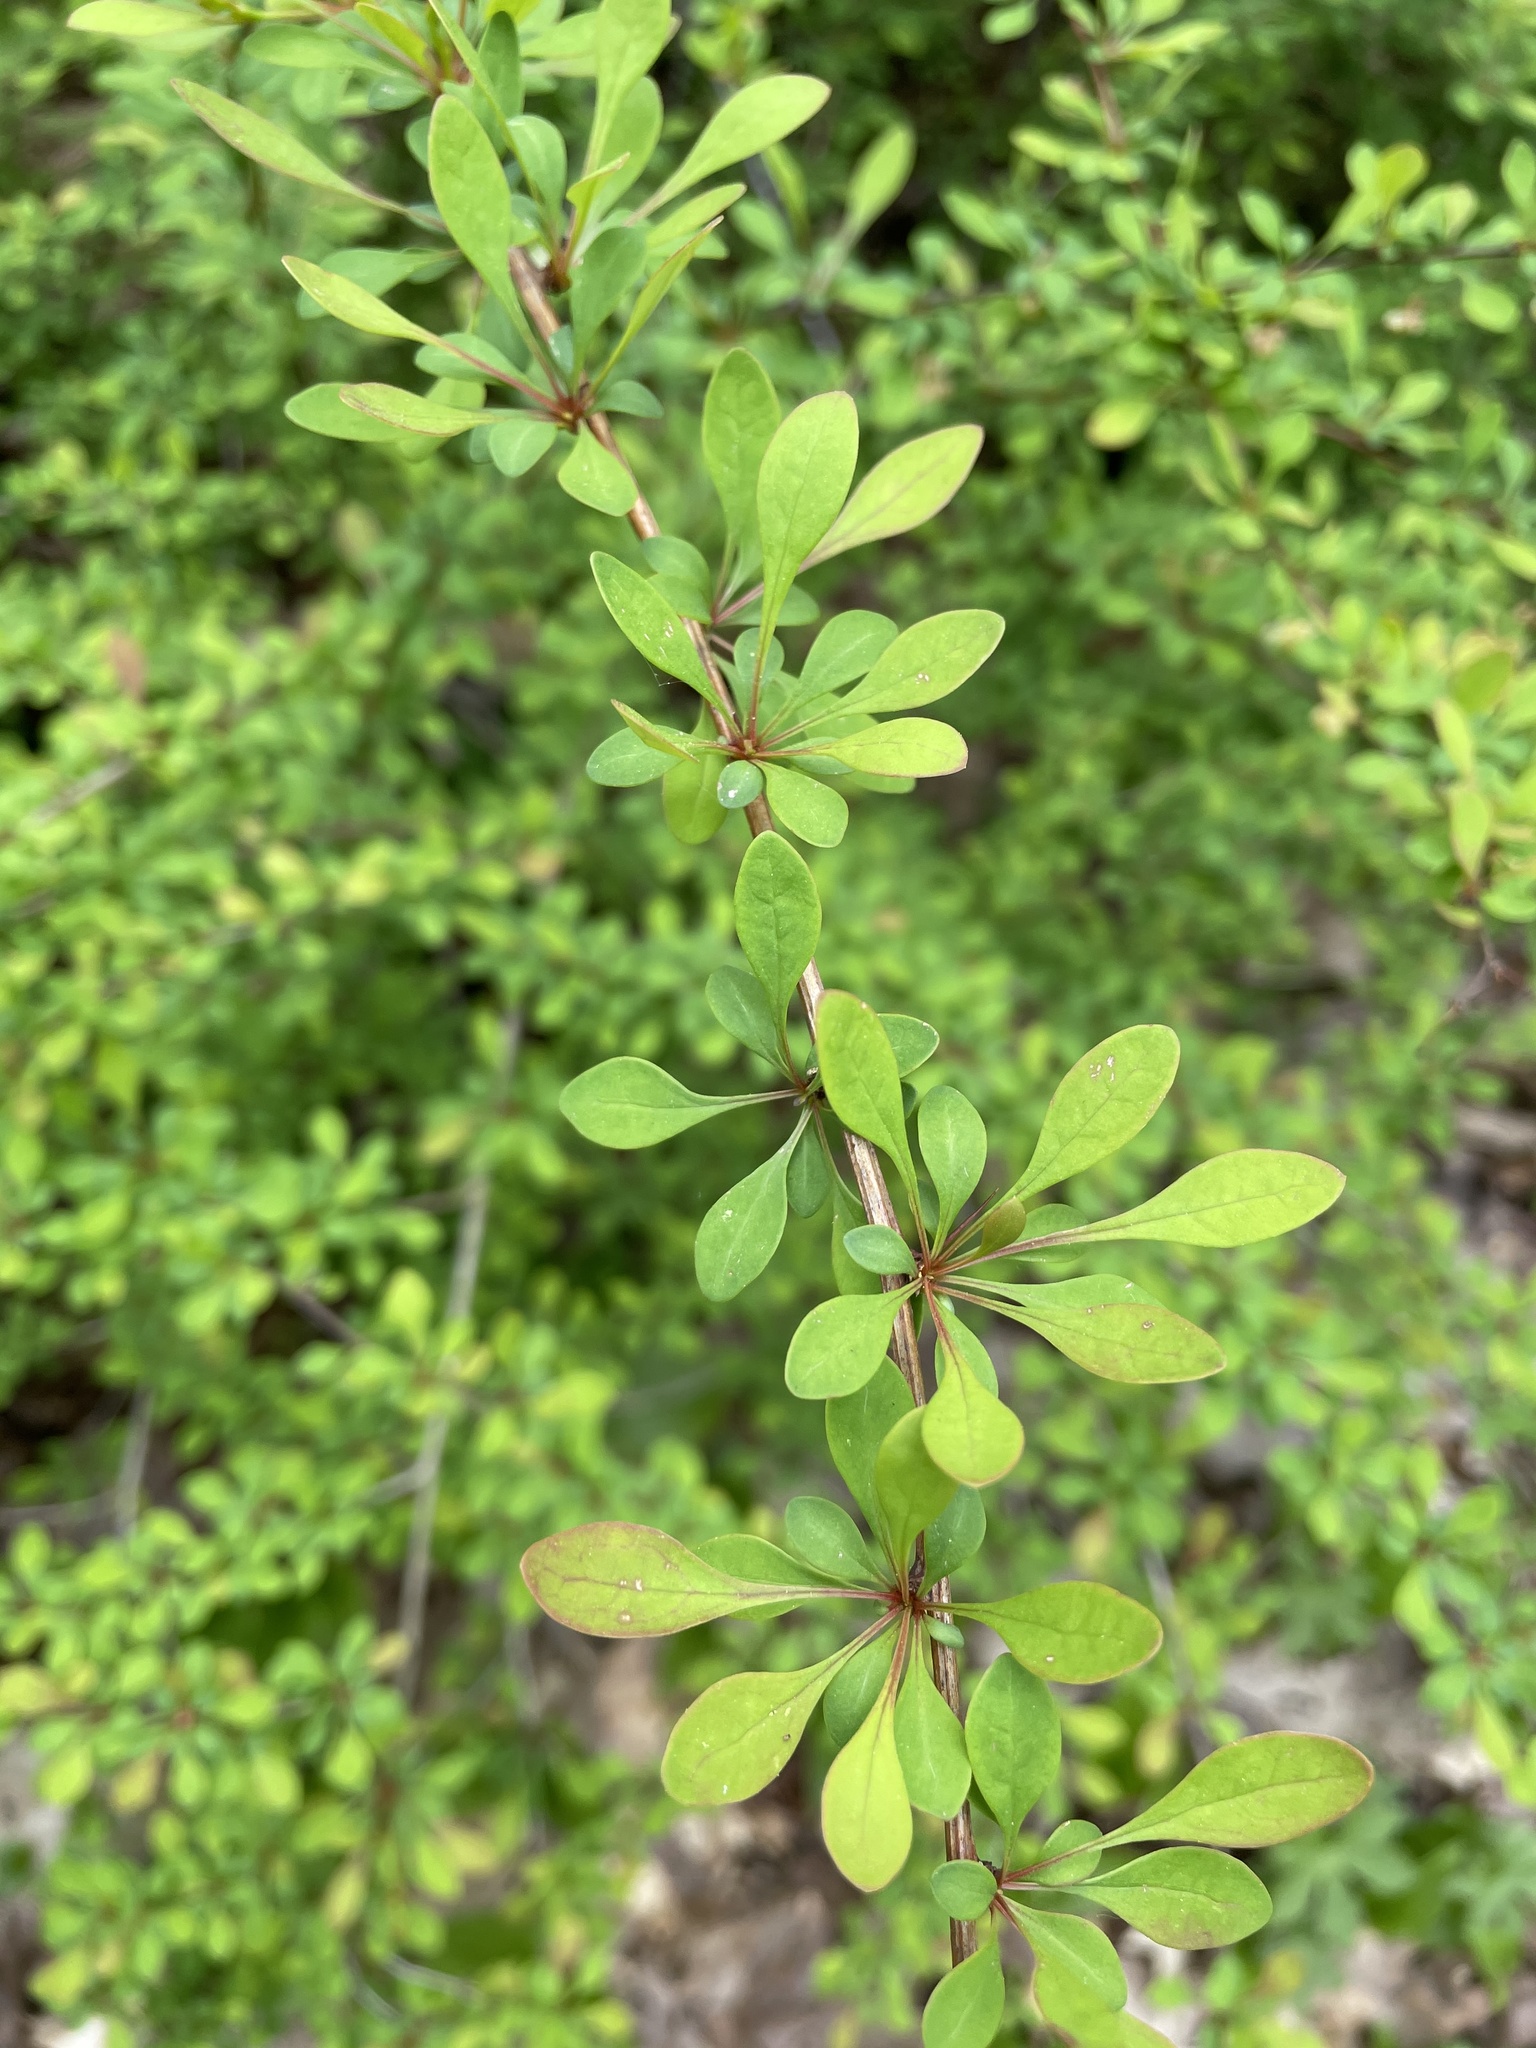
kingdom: Plantae
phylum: Tracheophyta
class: Magnoliopsida
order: Ranunculales
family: Berberidaceae
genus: Berberis
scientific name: Berberis thunbergii
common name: Japanese barberry
